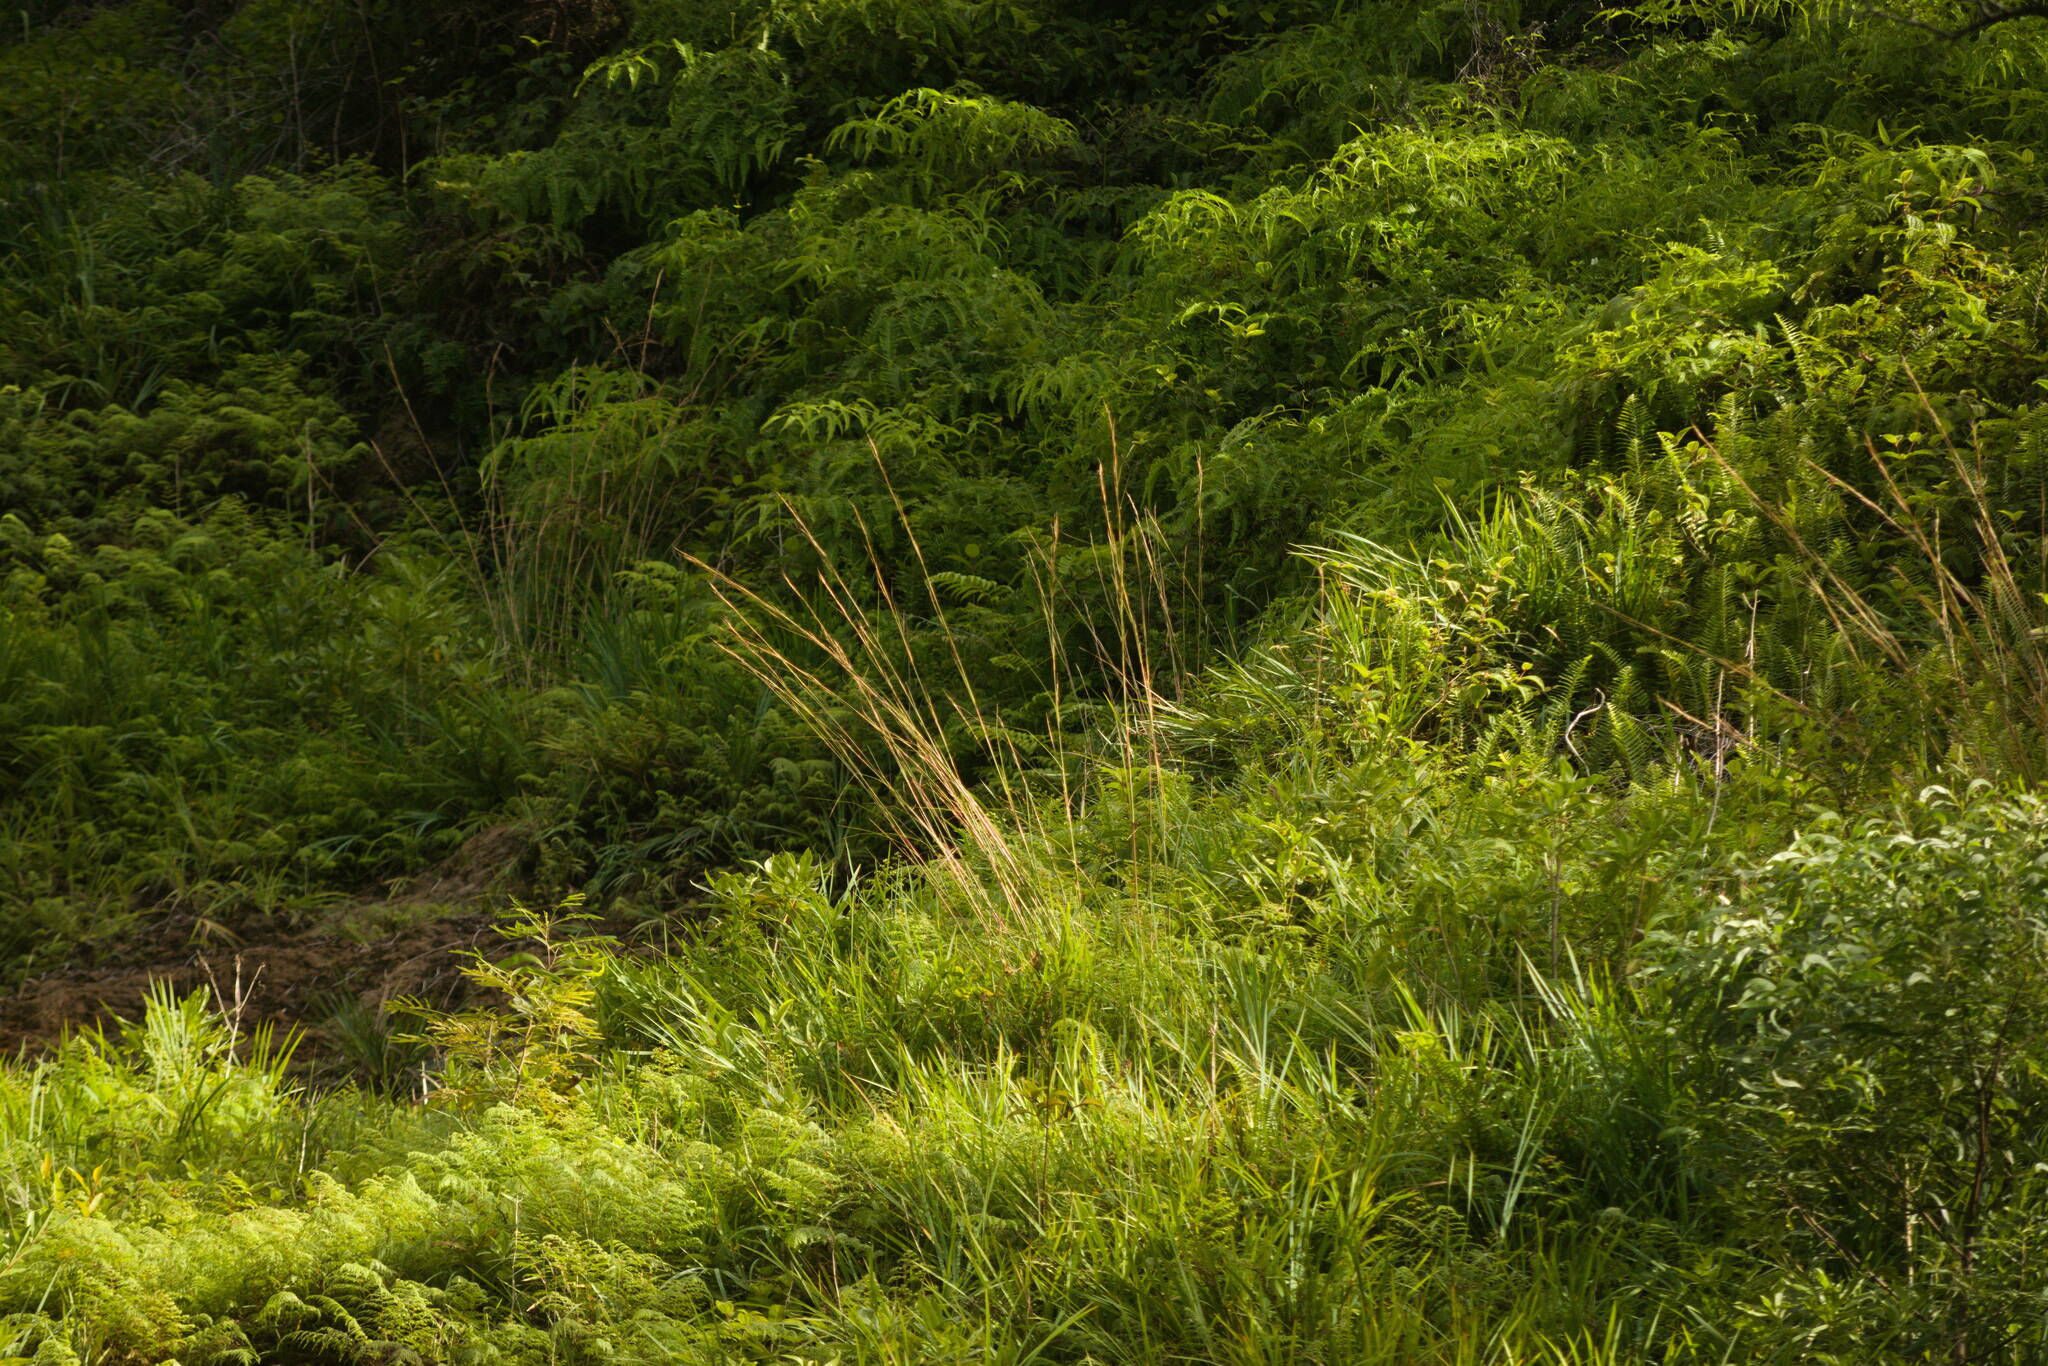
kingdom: Plantae
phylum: Tracheophyta
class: Liliopsida
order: Poales
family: Poaceae
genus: Andropogon
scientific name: Andropogon virginicus
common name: Broomsedge bluestem
